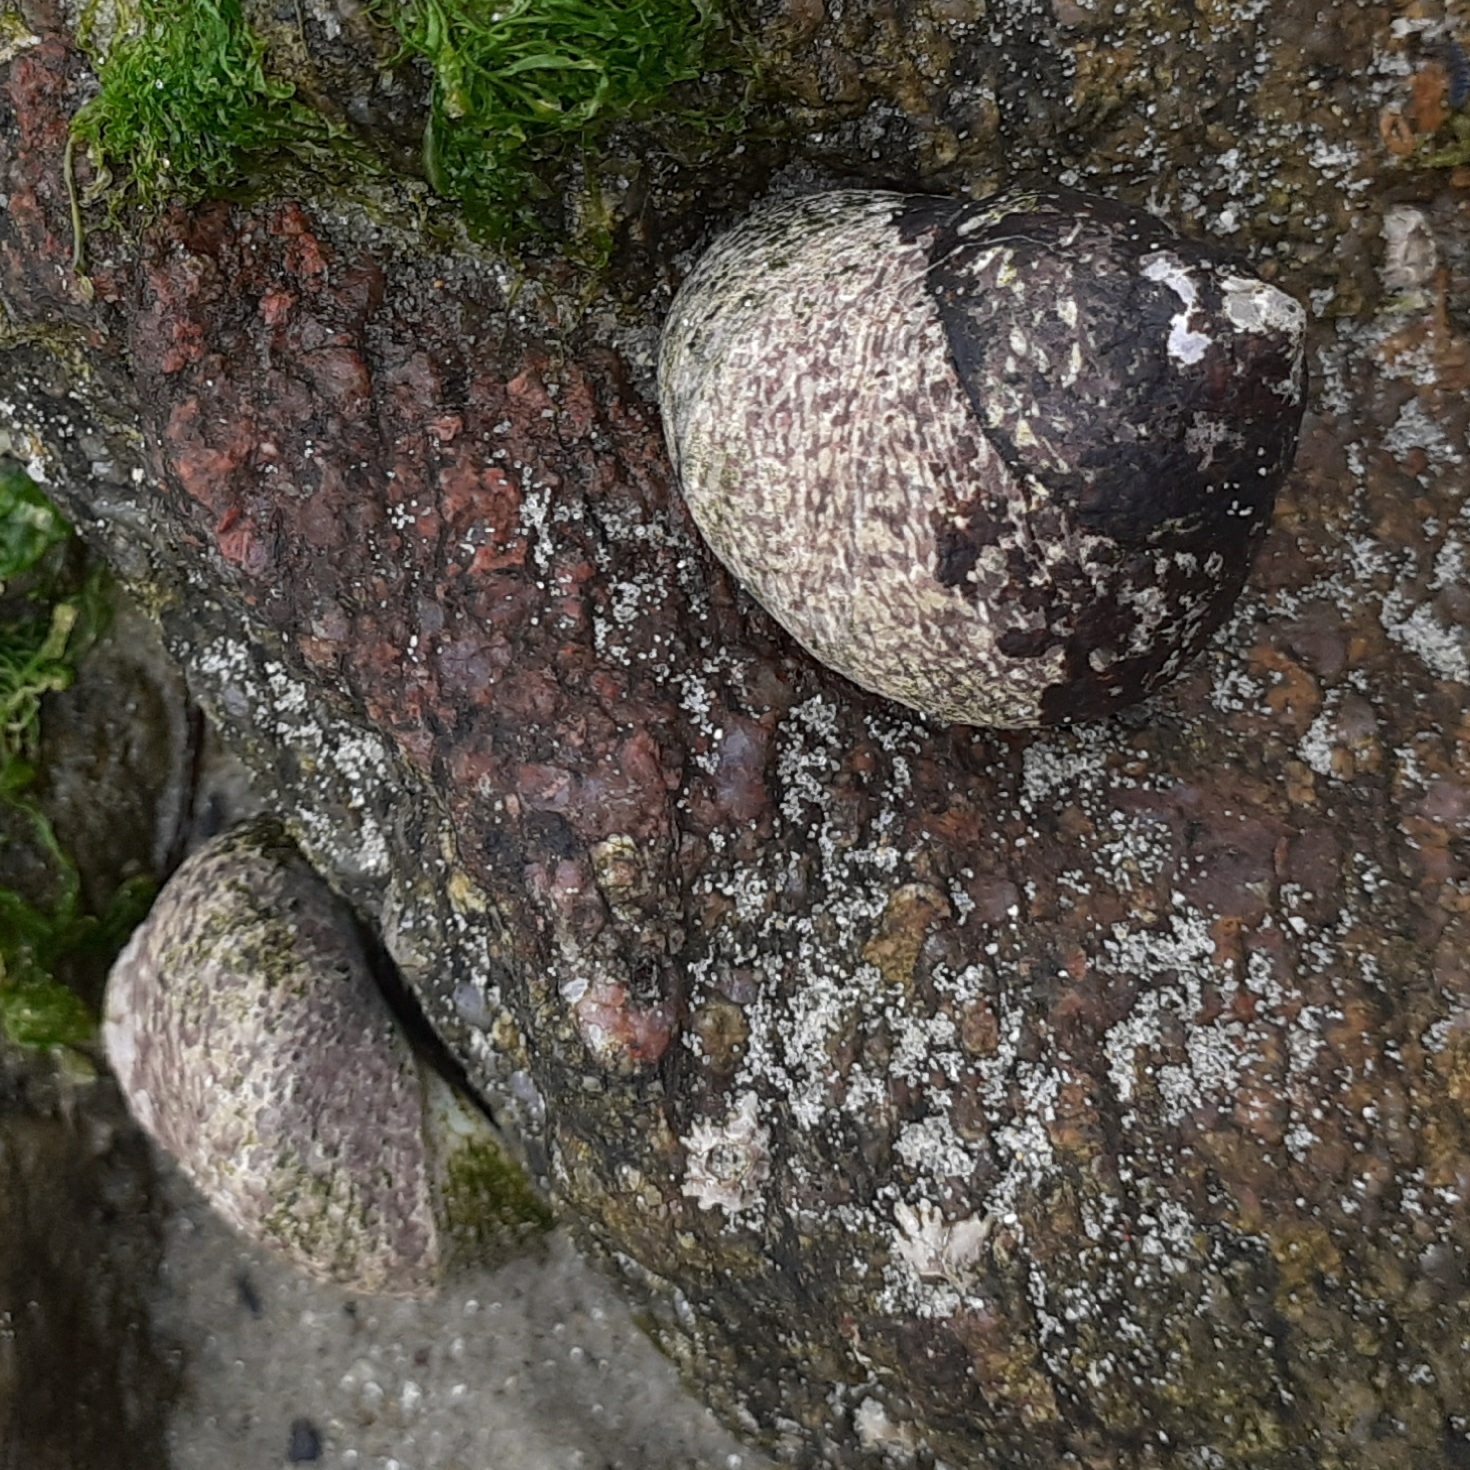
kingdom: Animalia
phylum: Mollusca
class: Gastropoda
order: Trochida
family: Trochidae
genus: Phorcus
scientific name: Phorcus lineatus
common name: Toothed top shell
